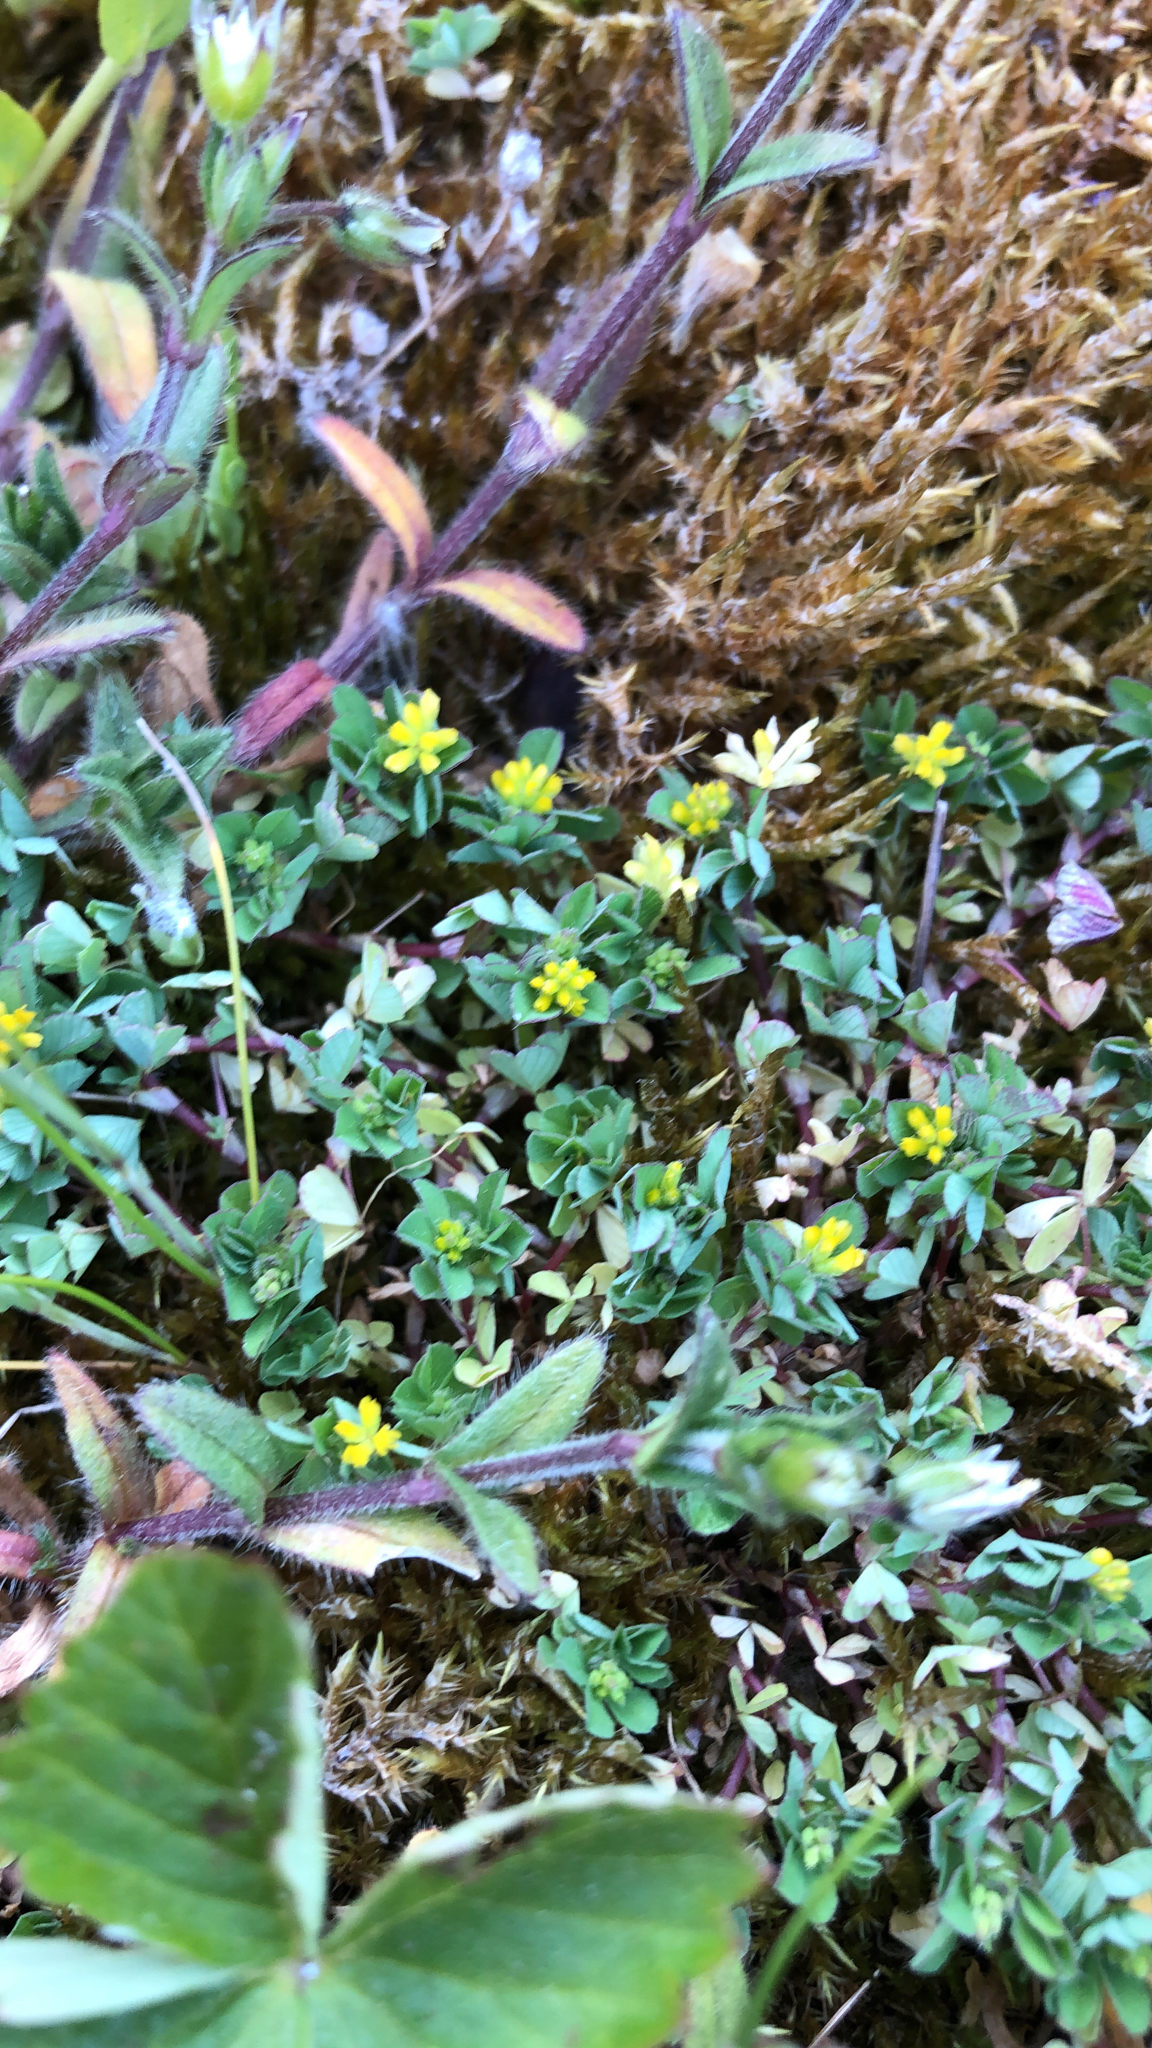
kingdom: Plantae
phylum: Tracheophyta
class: Magnoliopsida
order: Fabales
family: Fabaceae
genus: Trifolium
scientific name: Trifolium dubium
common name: Suckling clover
